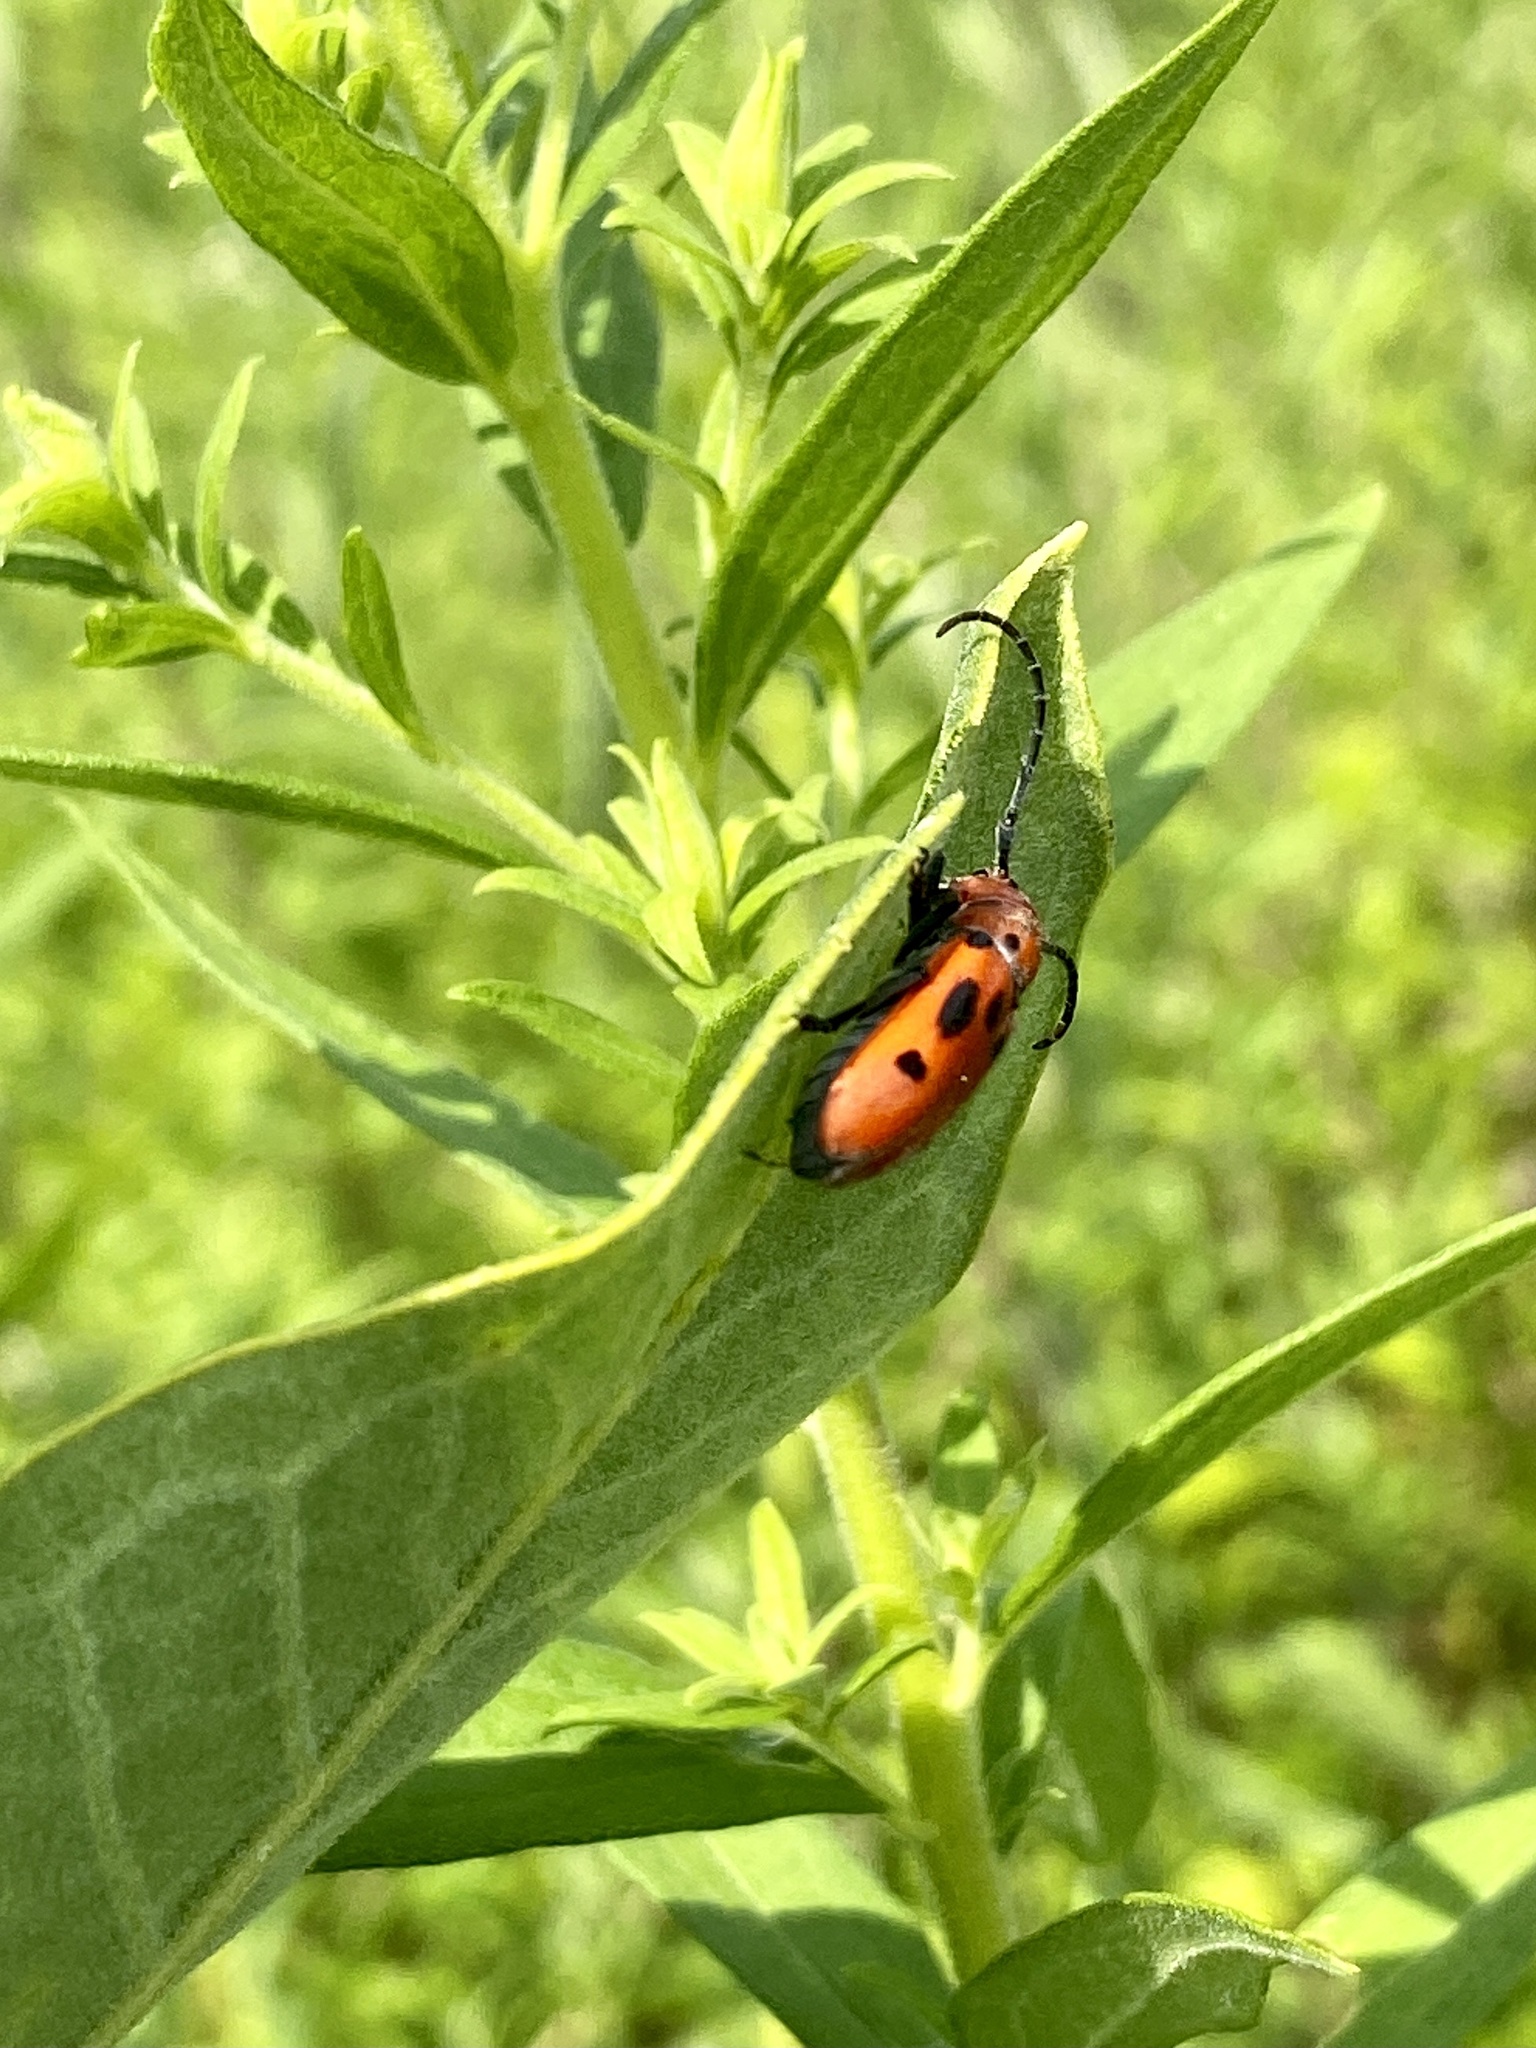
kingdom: Animalia
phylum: Arthropoda
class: Insecta
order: Coleoptera
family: Cerambycidae
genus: Tetraopes
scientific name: Tetraopes tetrophthalmus
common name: Red milkweed beetle
